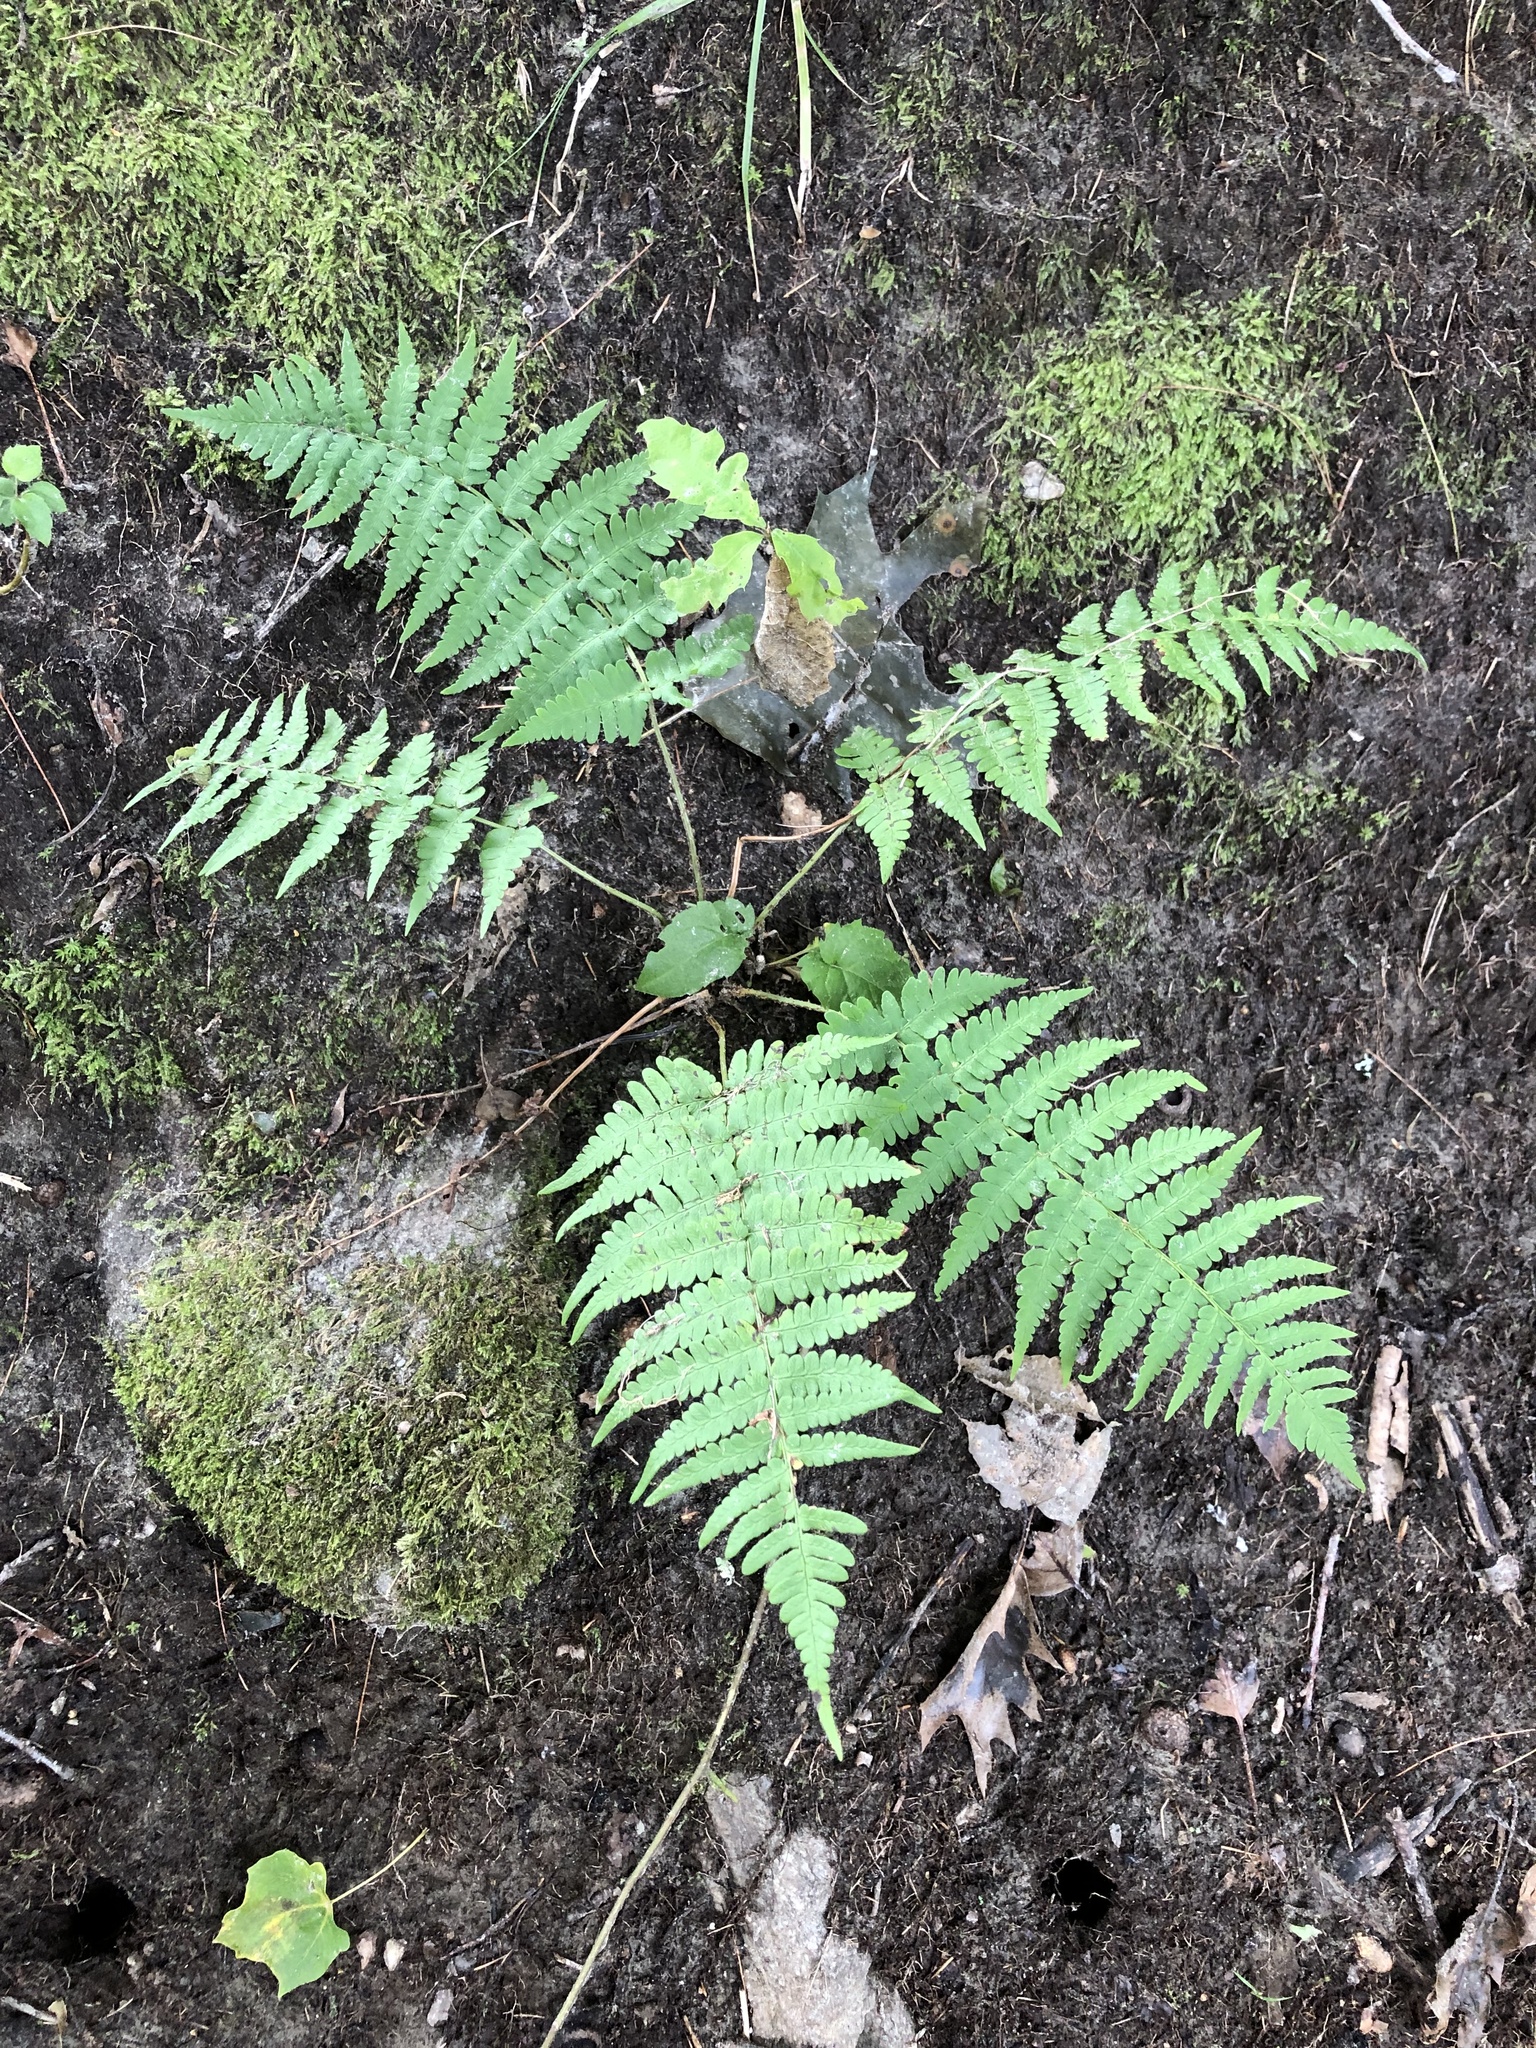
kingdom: Plantae
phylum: Tracheophyta
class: Polypodiopsida
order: Polypodiales
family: Dryopteridaceae
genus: Dryopteris
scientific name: Dryopteris marginalis
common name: Marginal wood fern
